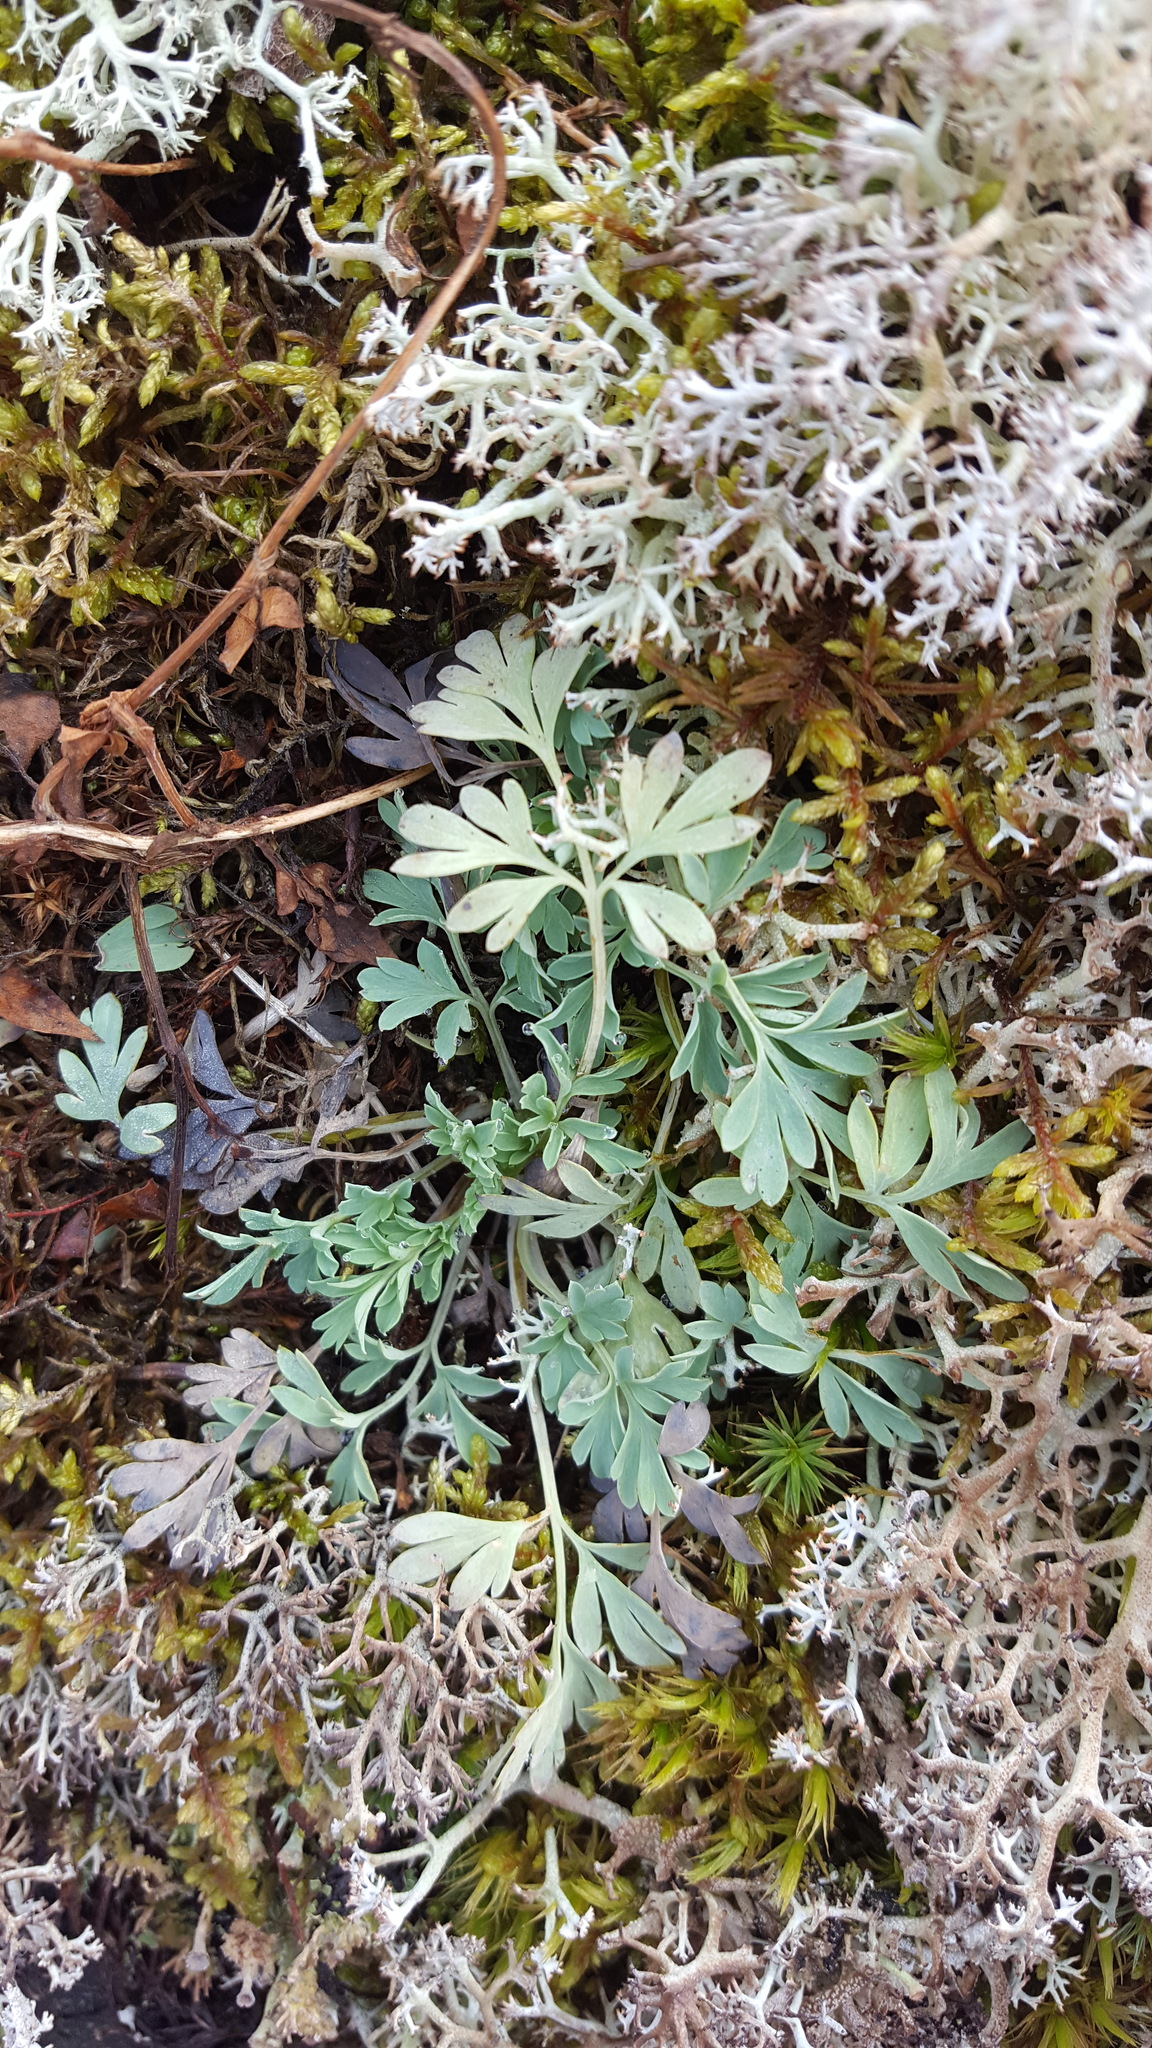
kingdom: Plantae
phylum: Tracheophyta
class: Magnoliopsida
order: Ranunculales
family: Papaveraceae
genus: Capnoides
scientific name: Capnoides sempervirens
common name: Rock harlequin
